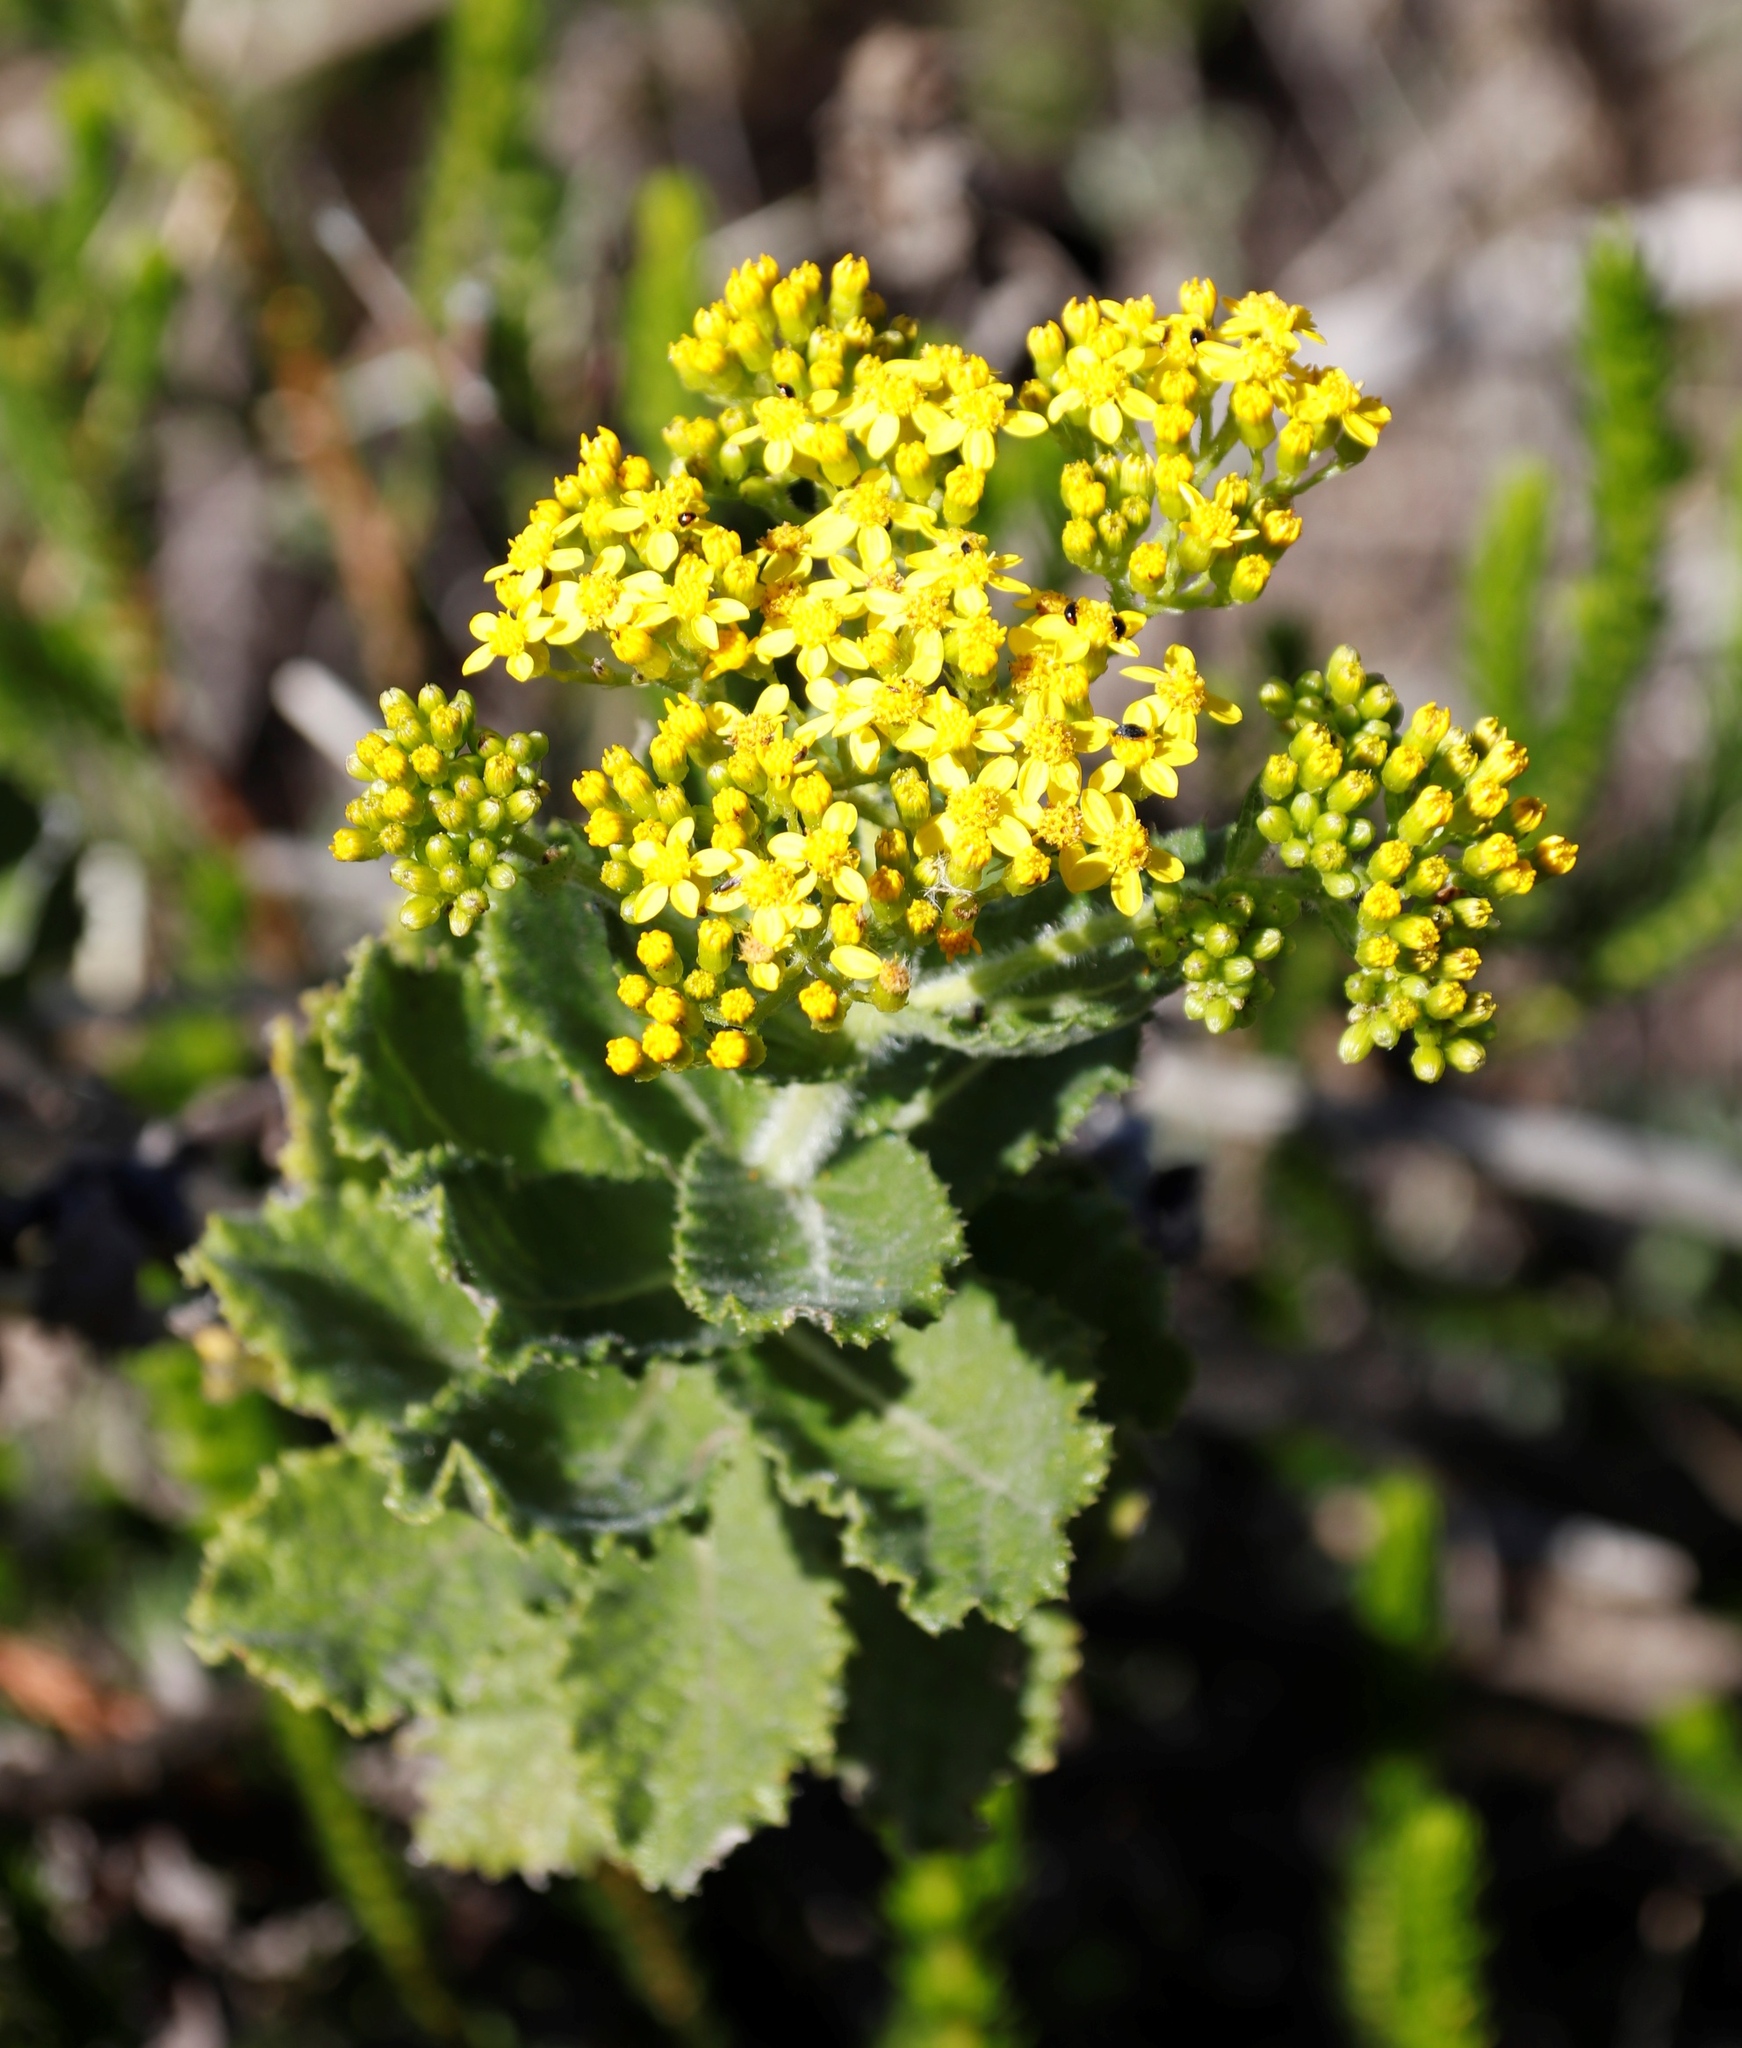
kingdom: Plantae
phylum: Tracheophyta
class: Magnoliopsida
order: Asterales
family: Asteraceae
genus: Senecio
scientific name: Senecio rigidus
